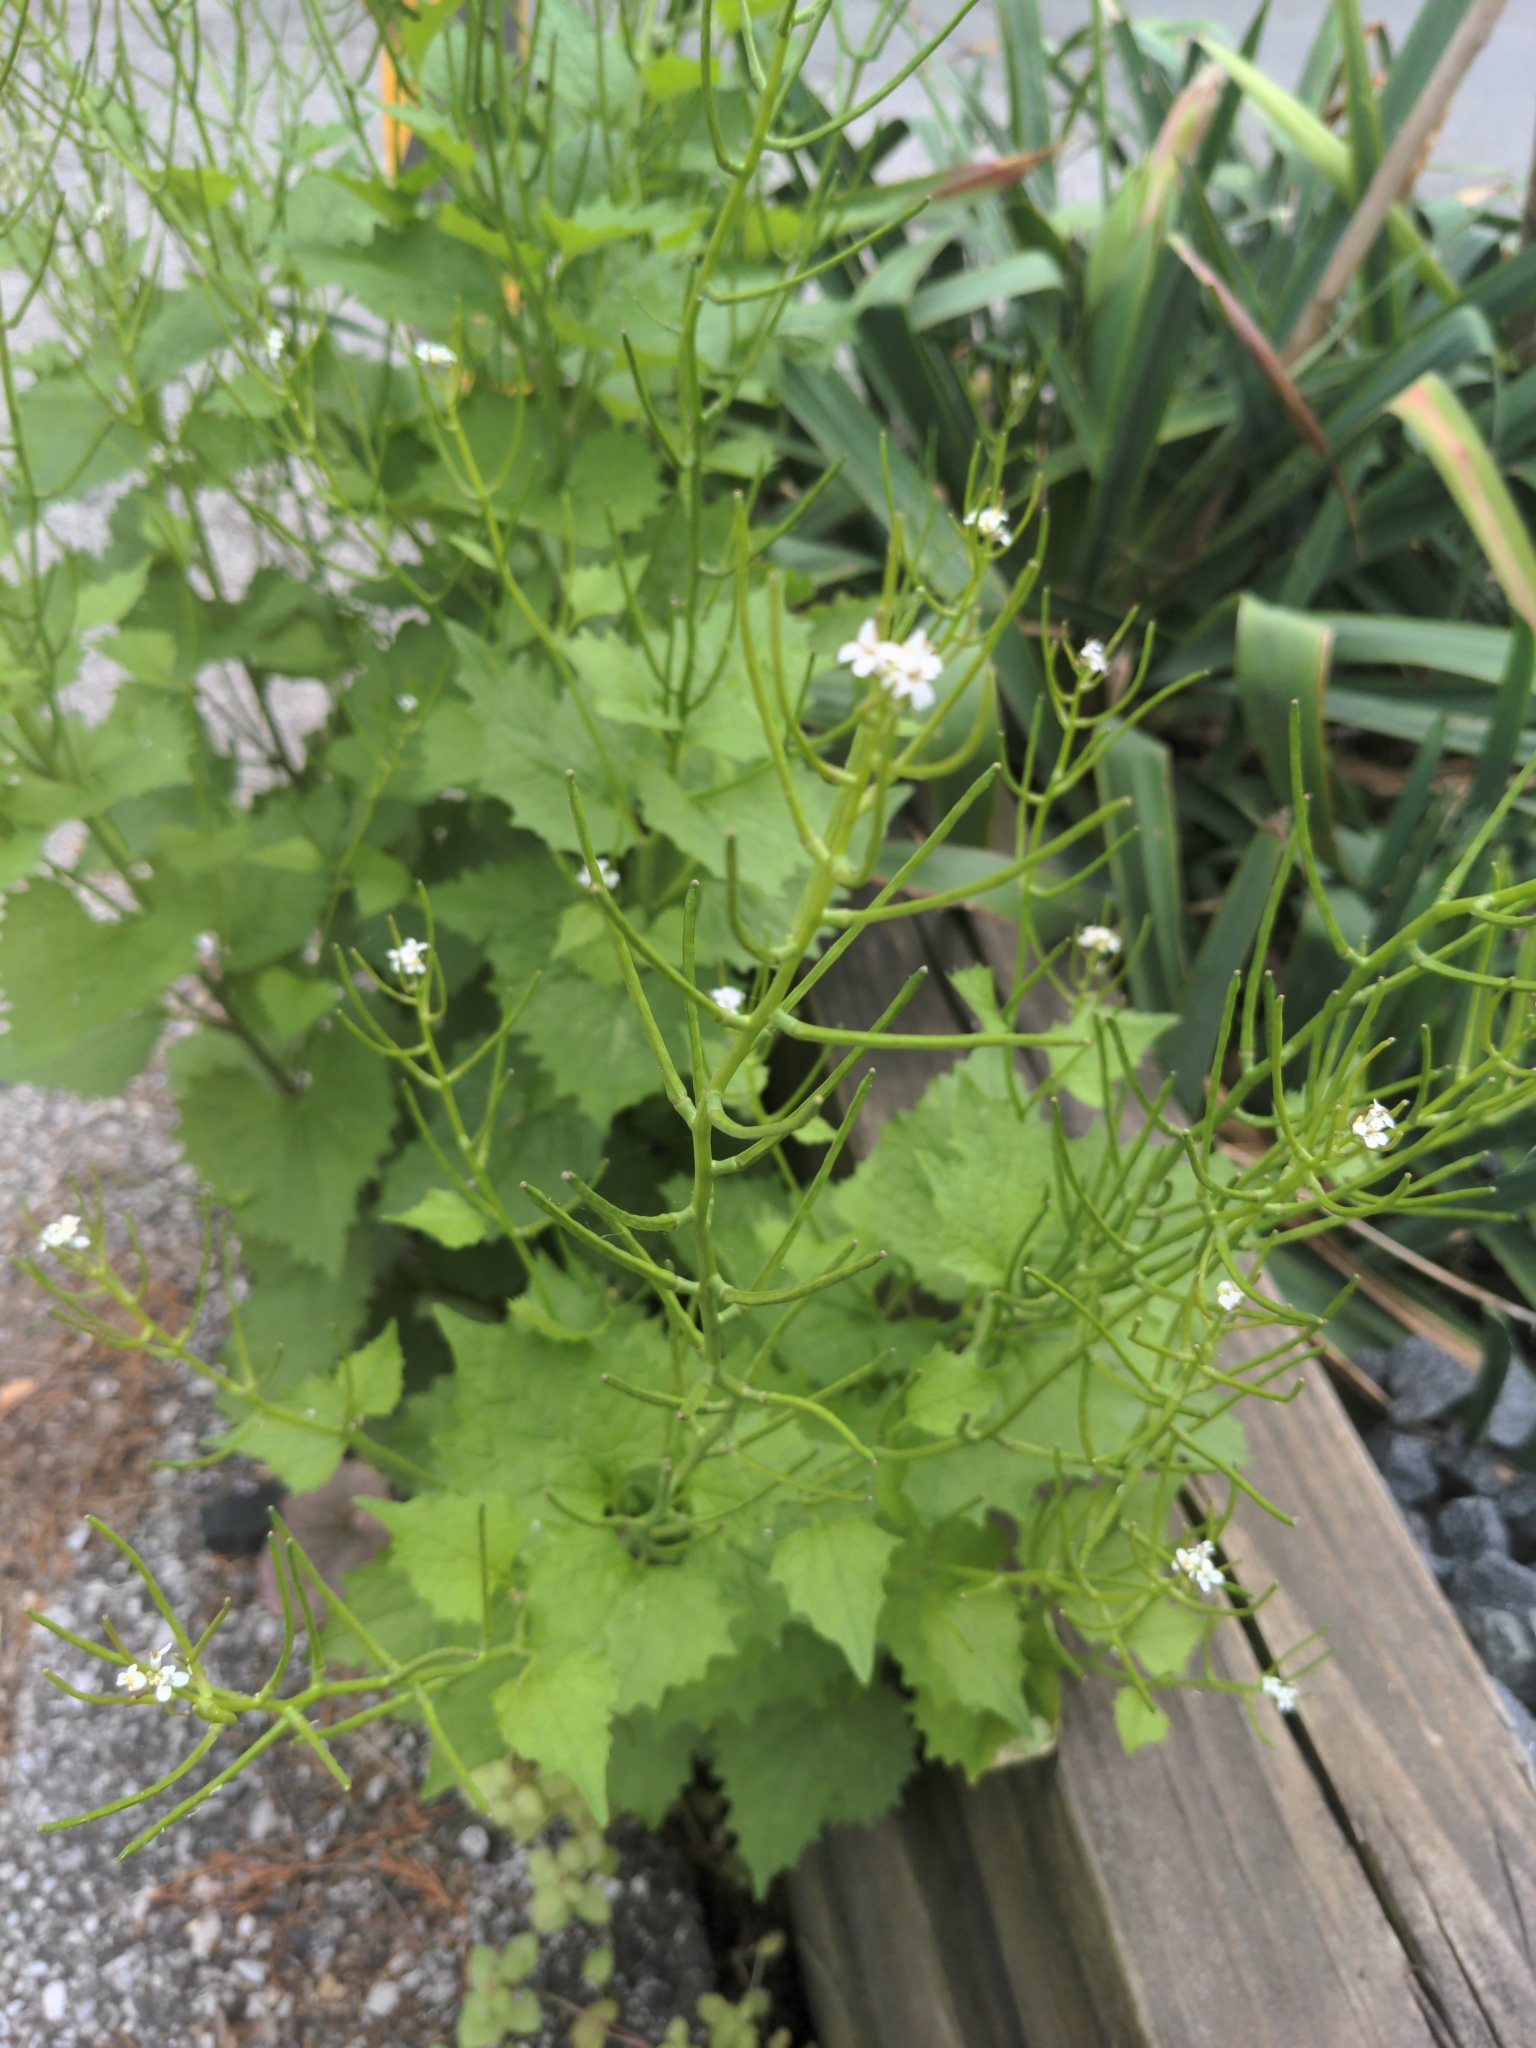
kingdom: Plantae
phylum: Tracheophyta
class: Magnoliopsida
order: Brassicales
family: Brassicaceae
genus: Alliaria
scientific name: Alliaria petiolata
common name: Garlic mustard
